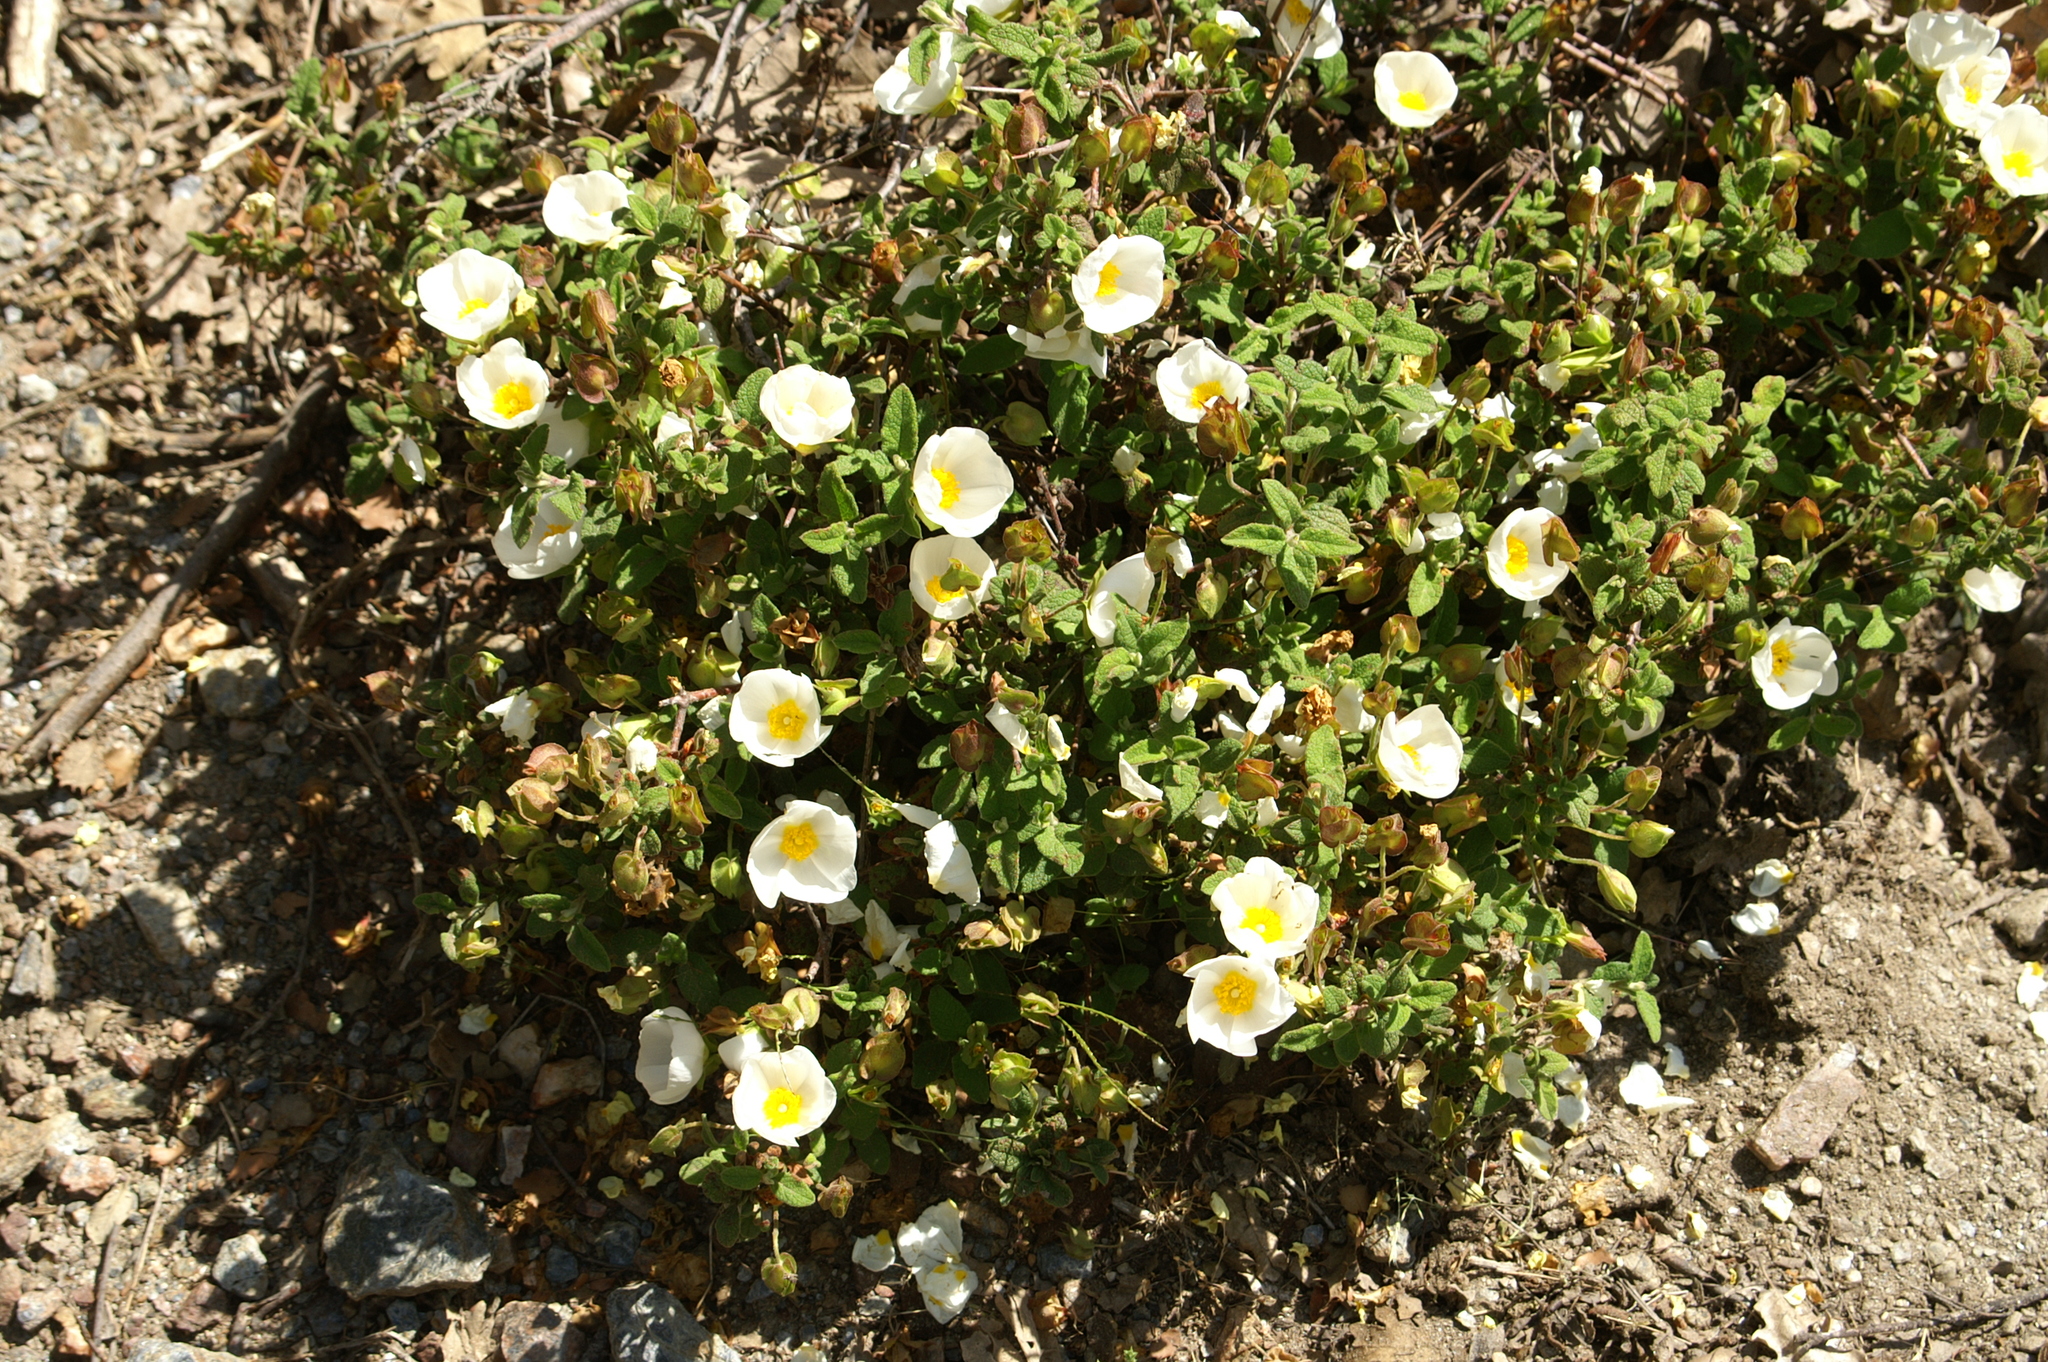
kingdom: Plantae
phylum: Tracheophyta
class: Magnoliopsida
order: Malvales
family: Cistaceae
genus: Cistus
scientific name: Cistus salviifolius
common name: Salvia cistus
